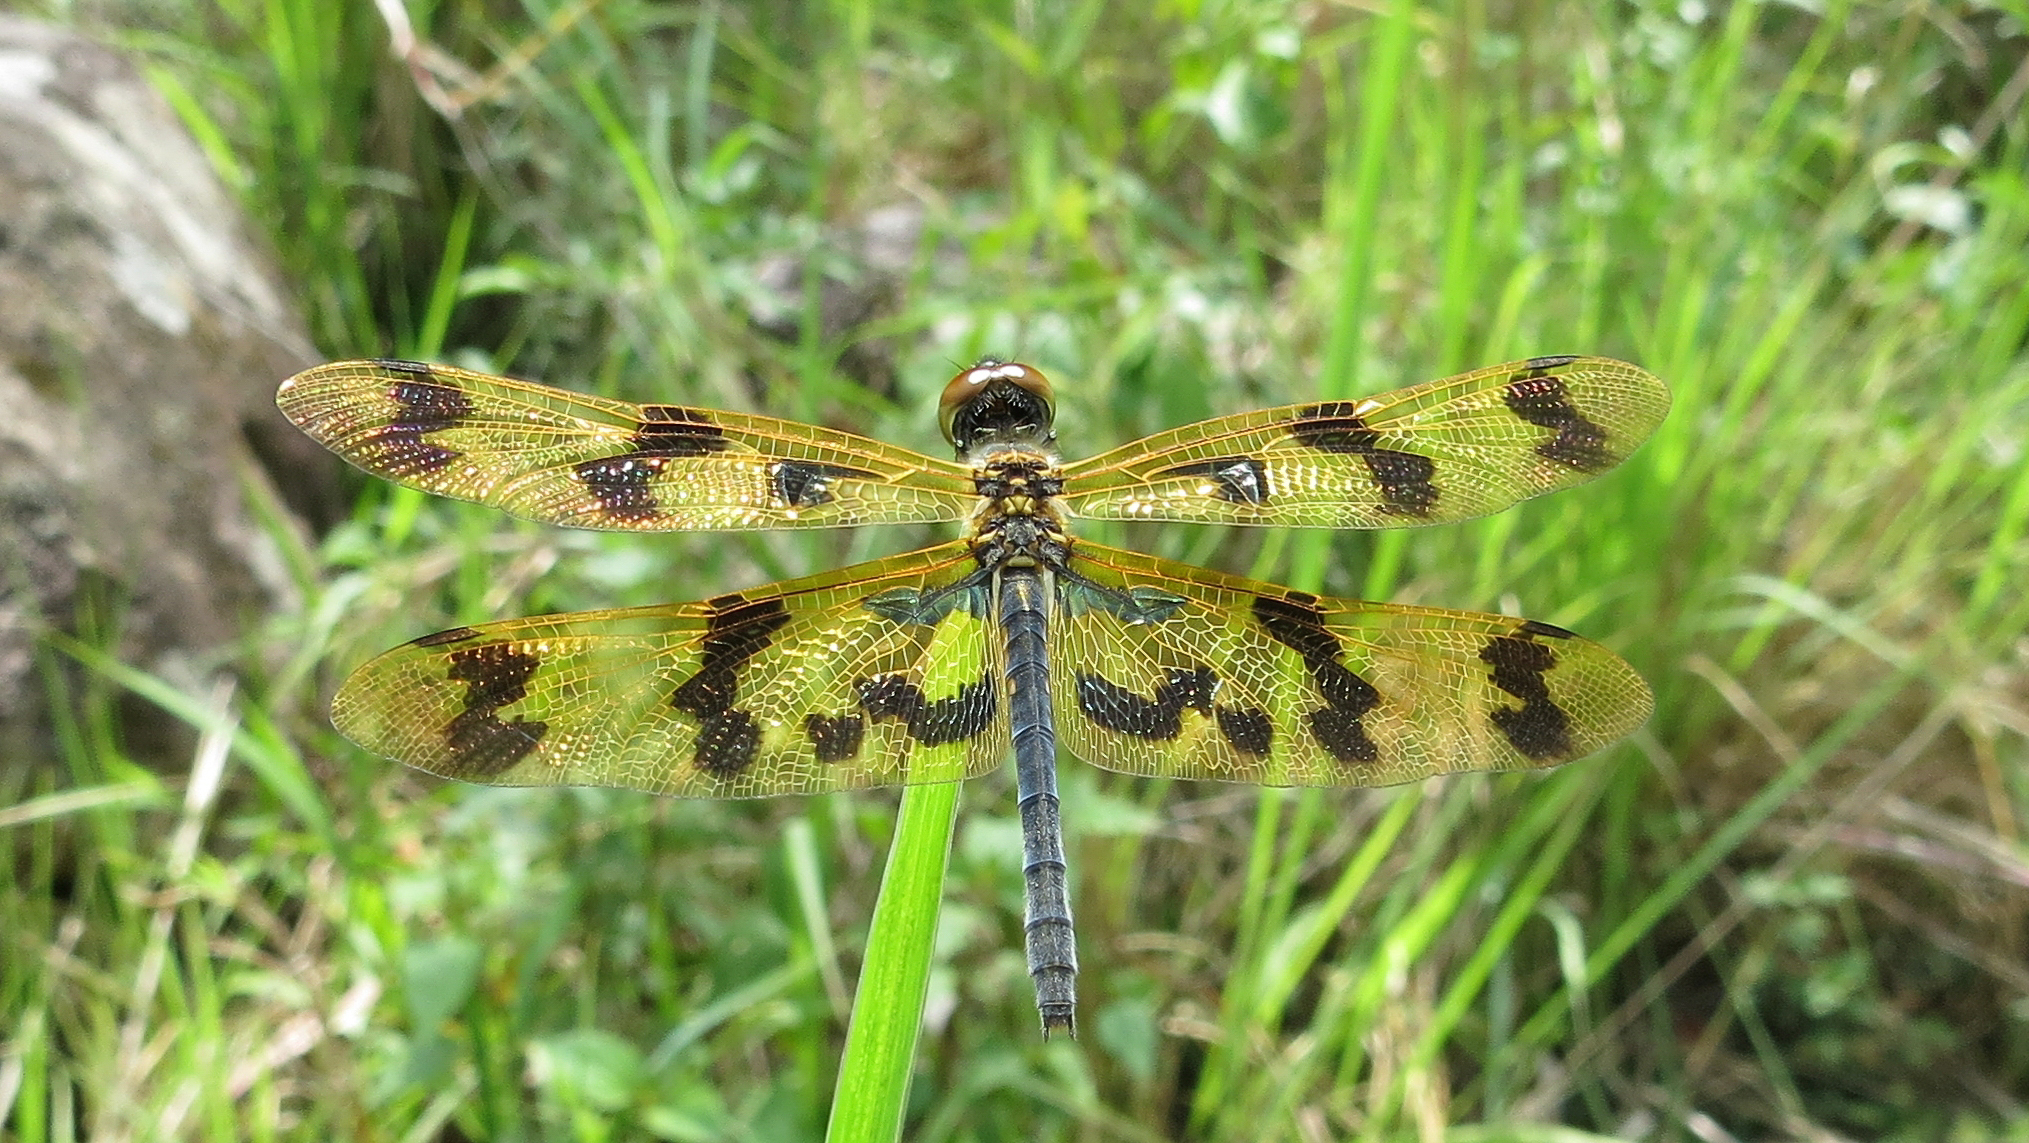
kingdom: Animalia
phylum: Arthropoda
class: Insecta
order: Odonata
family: Libellulidae
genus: Rhyothemis
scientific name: Rhyothemis graphiptera
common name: Graphic flutterer
